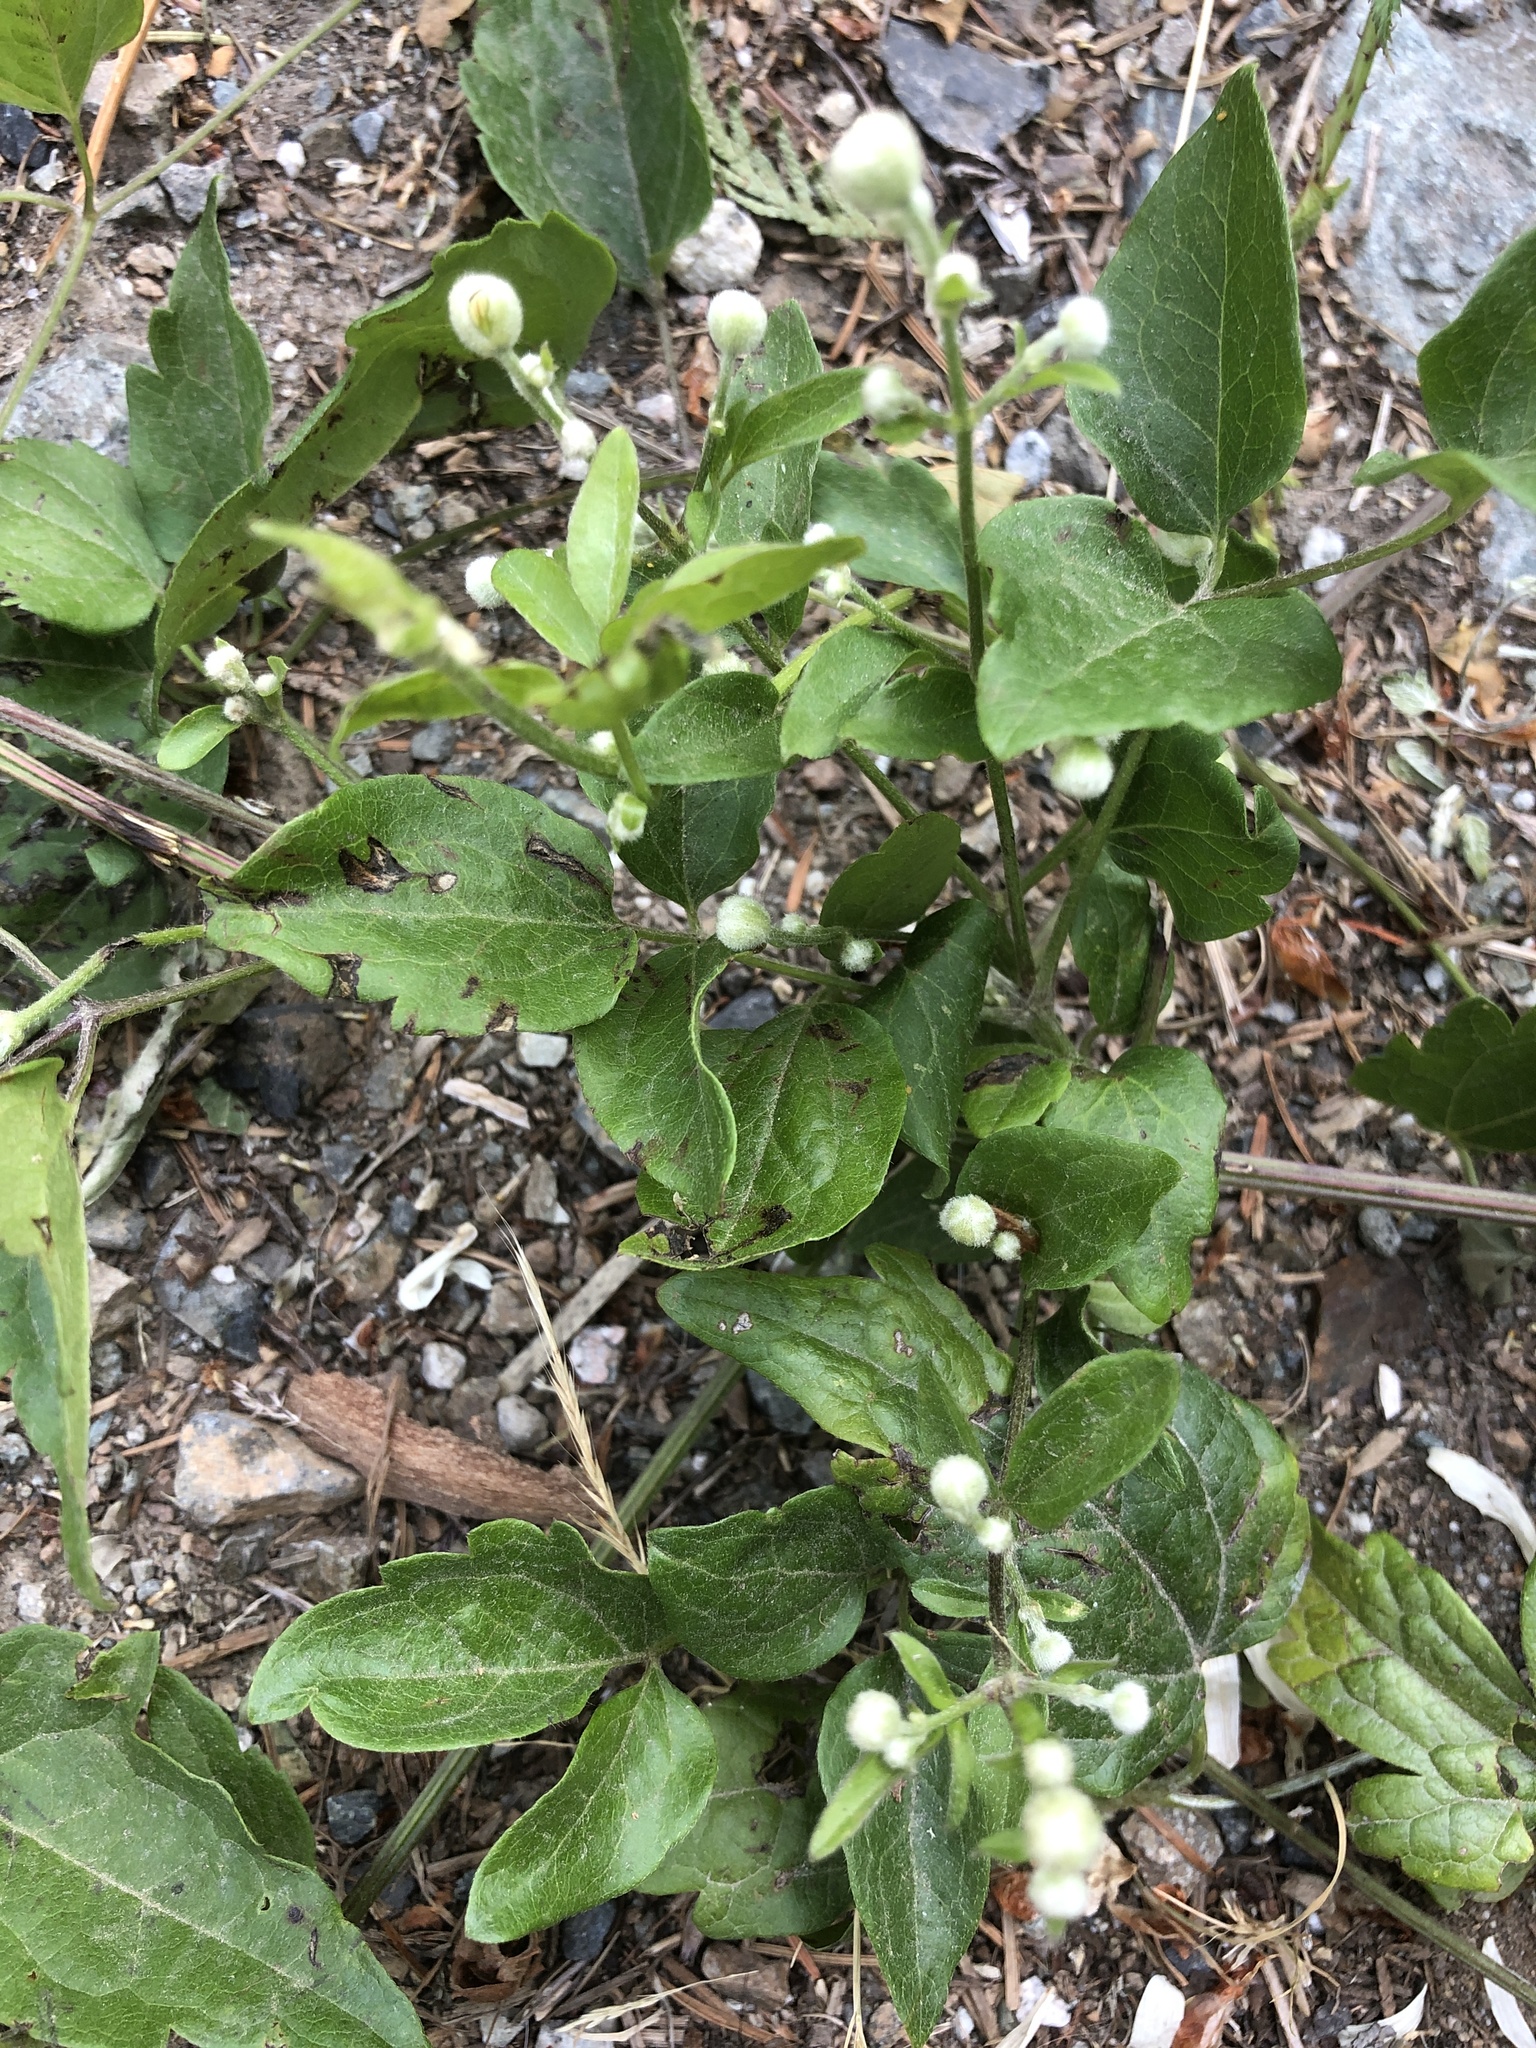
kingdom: Plantae
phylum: Tracheophyta
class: Magnoliopsida
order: Ranunculales
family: Ranunculaceae
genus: Clematis
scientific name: Clematis vitalba
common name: Evergreen clematis
